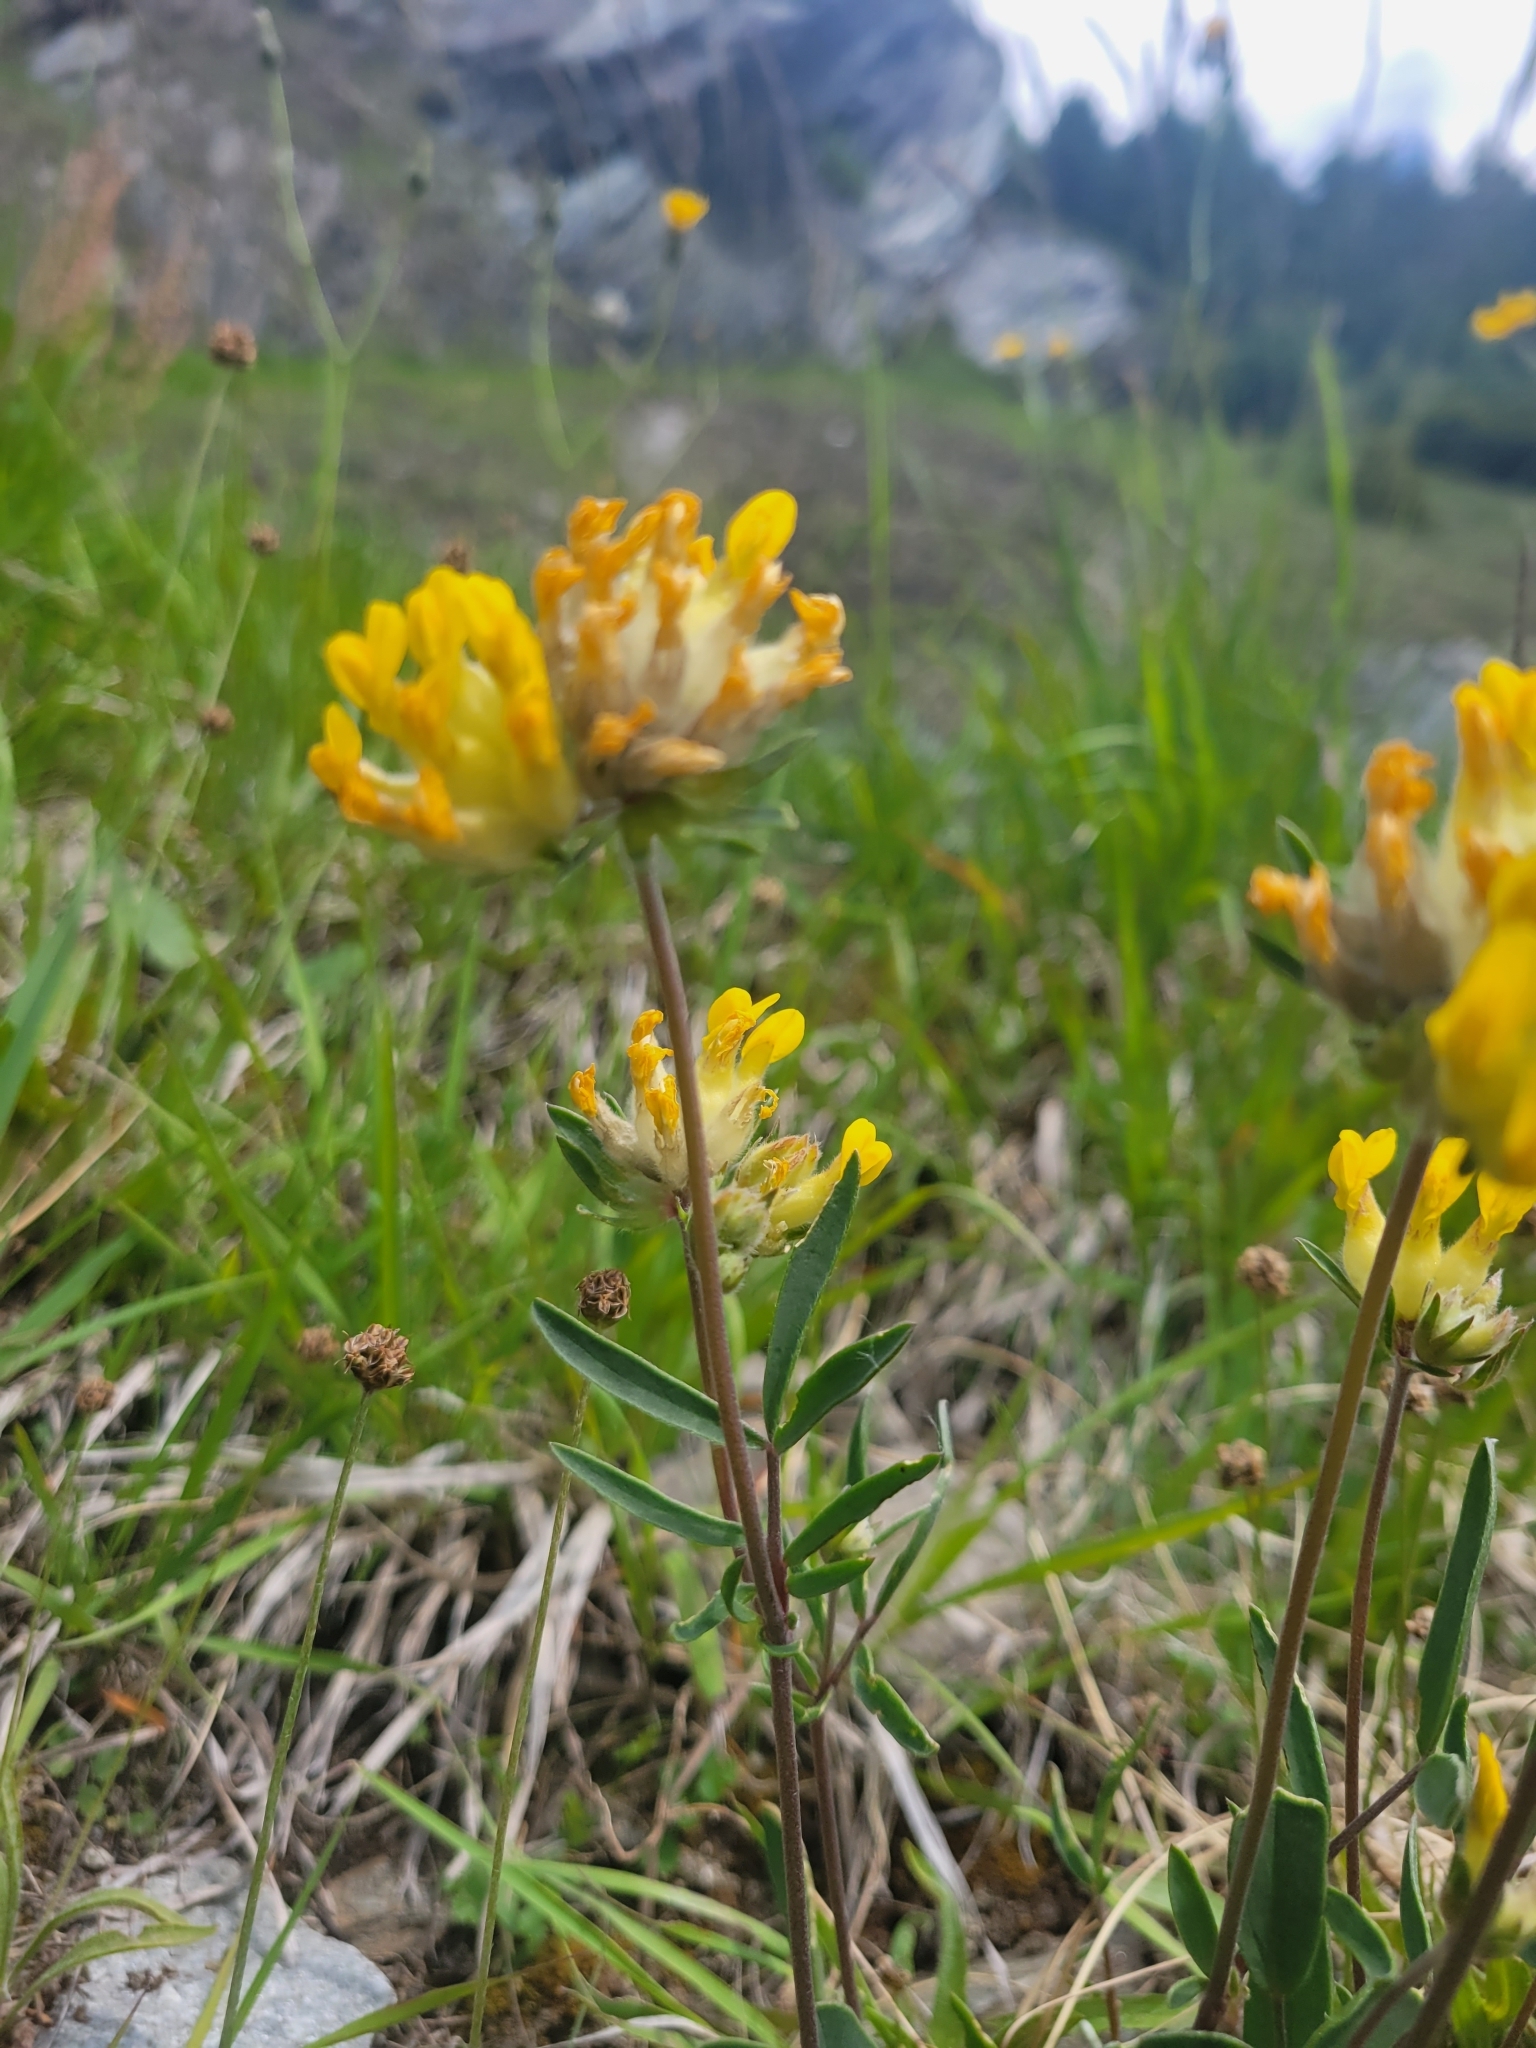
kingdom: Plantae
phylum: Tracheophyta
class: Magnoliopsida
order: Fabales
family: Fabaceae
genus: Anthyllis
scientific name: Anthyllis vulneraria
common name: Kidney vetch
